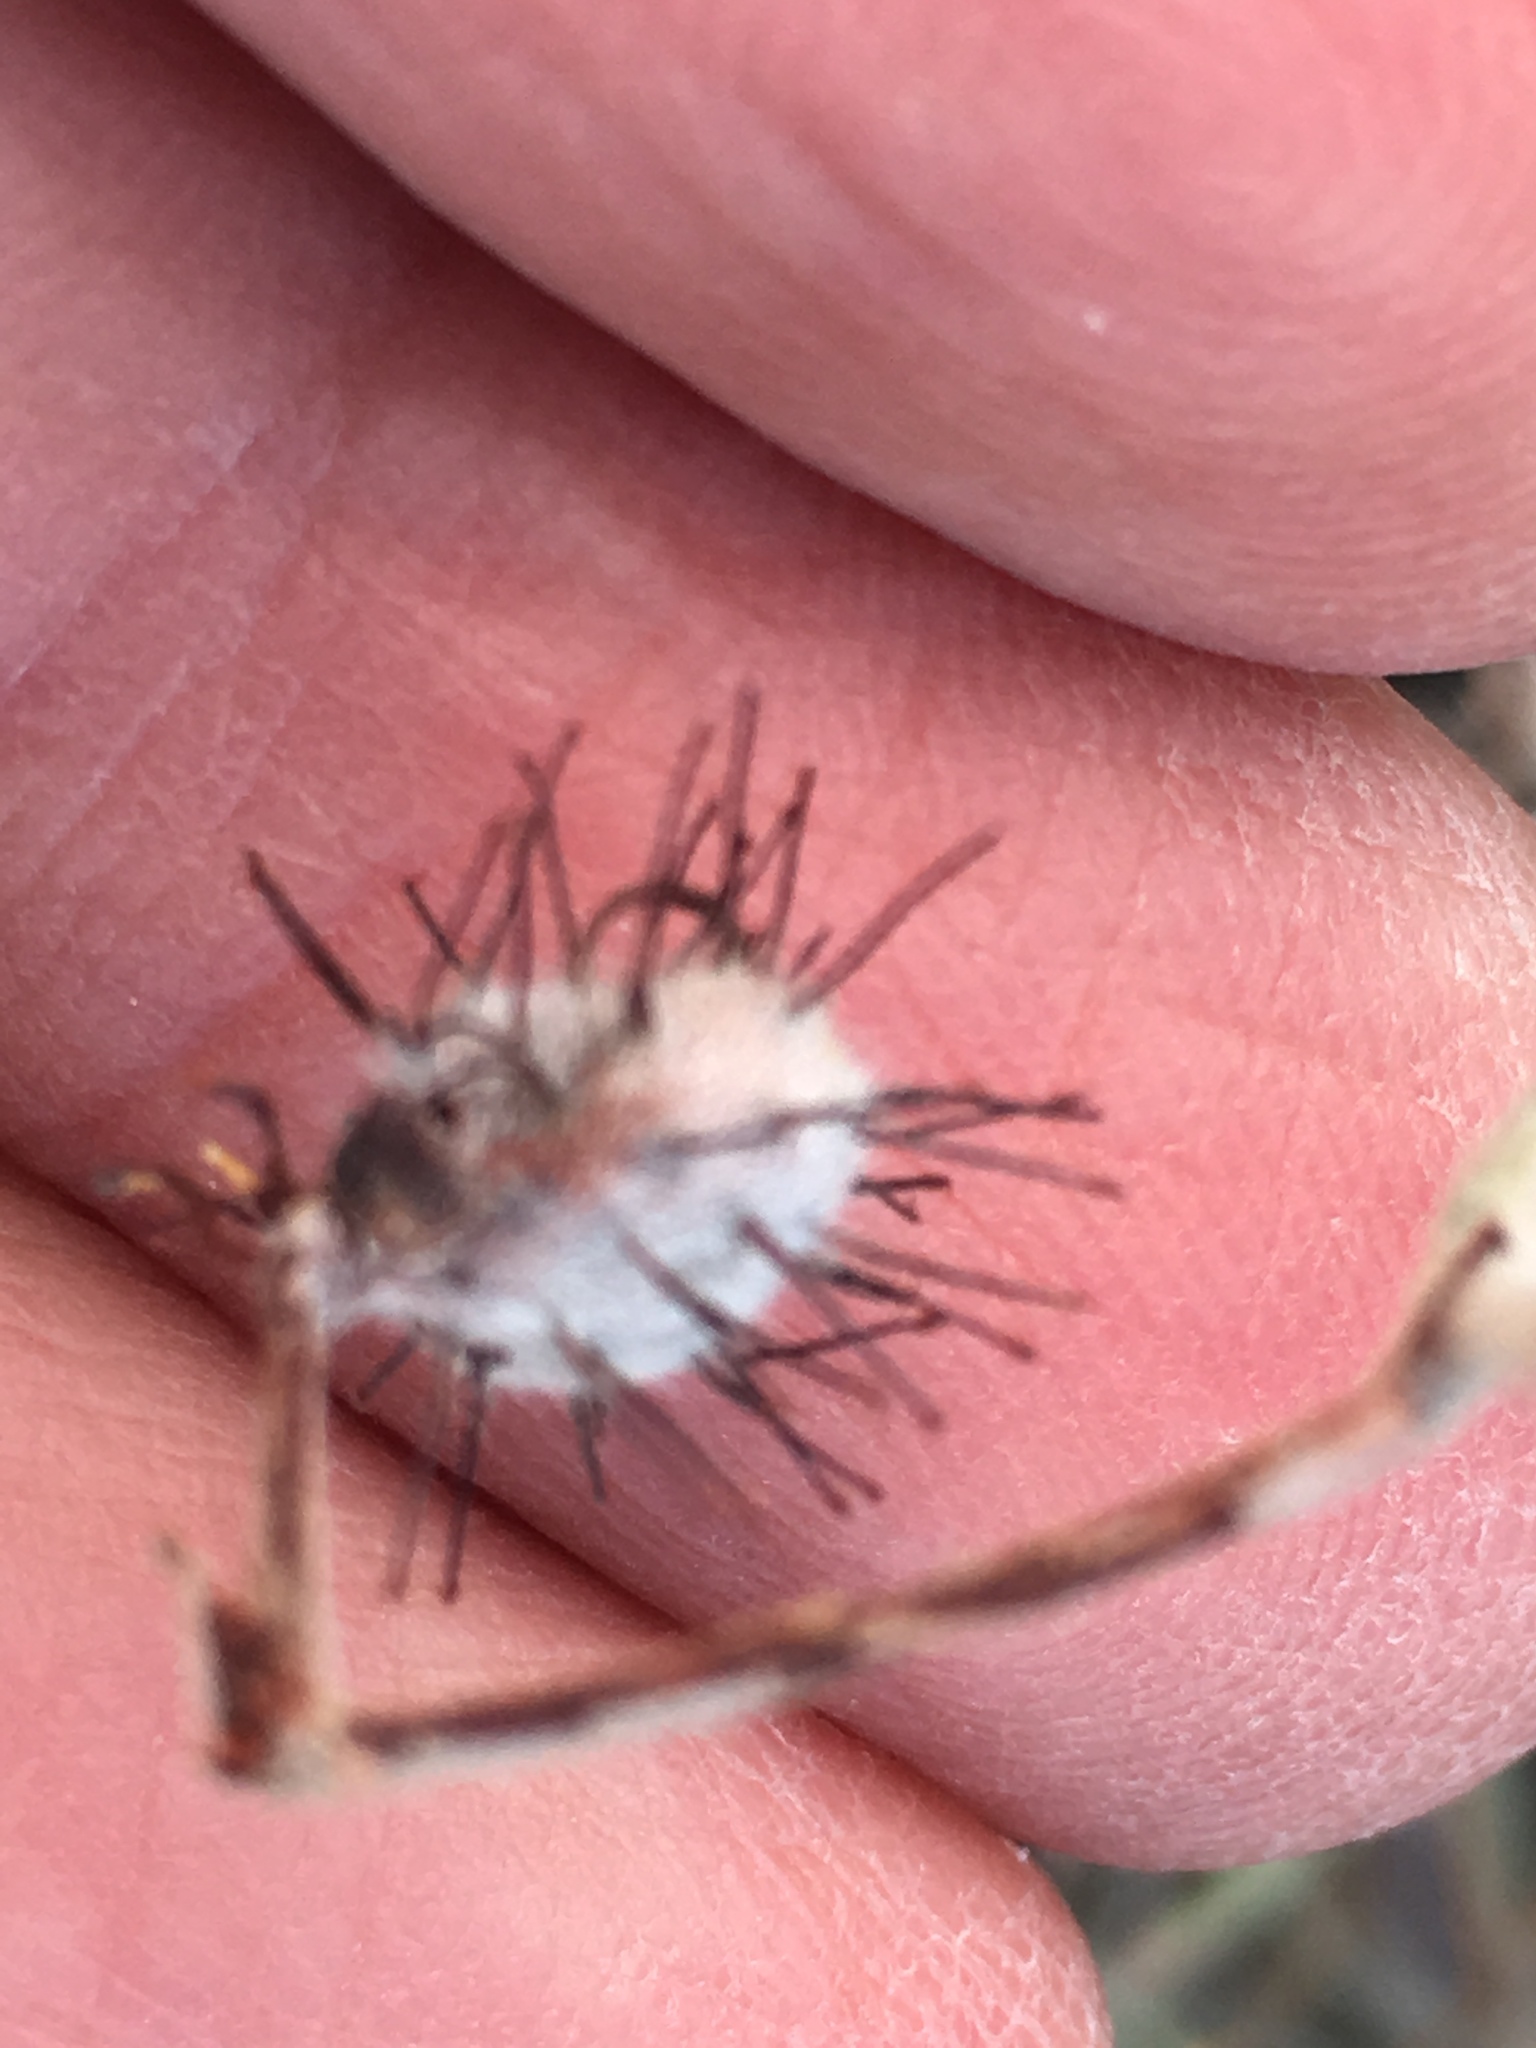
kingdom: Plantae
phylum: Tracheophyta
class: Magnoliopsida
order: Zygophyllales
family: Krameriaceae
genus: Krameria
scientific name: Krameria bicolor
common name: White ratany
